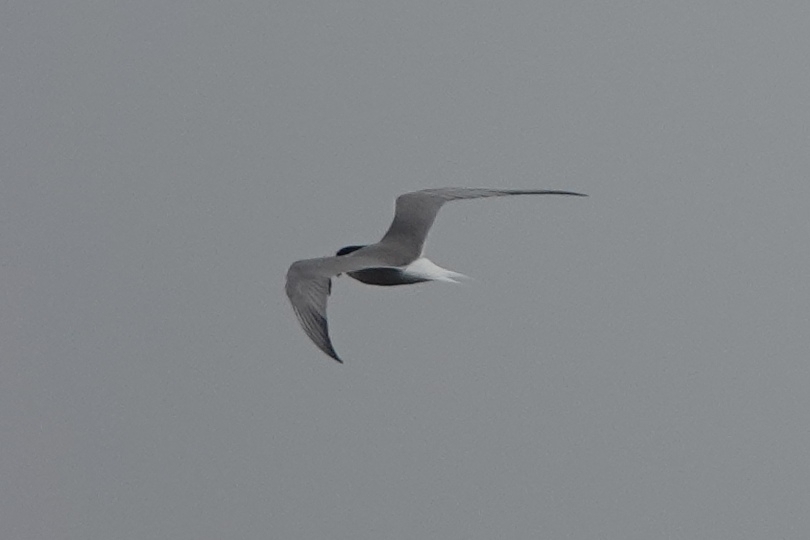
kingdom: Animalia
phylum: Chordata
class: Aves
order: Charadriiformes
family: Laridae
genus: Sterna
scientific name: Sterna hirundo
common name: Common tern
